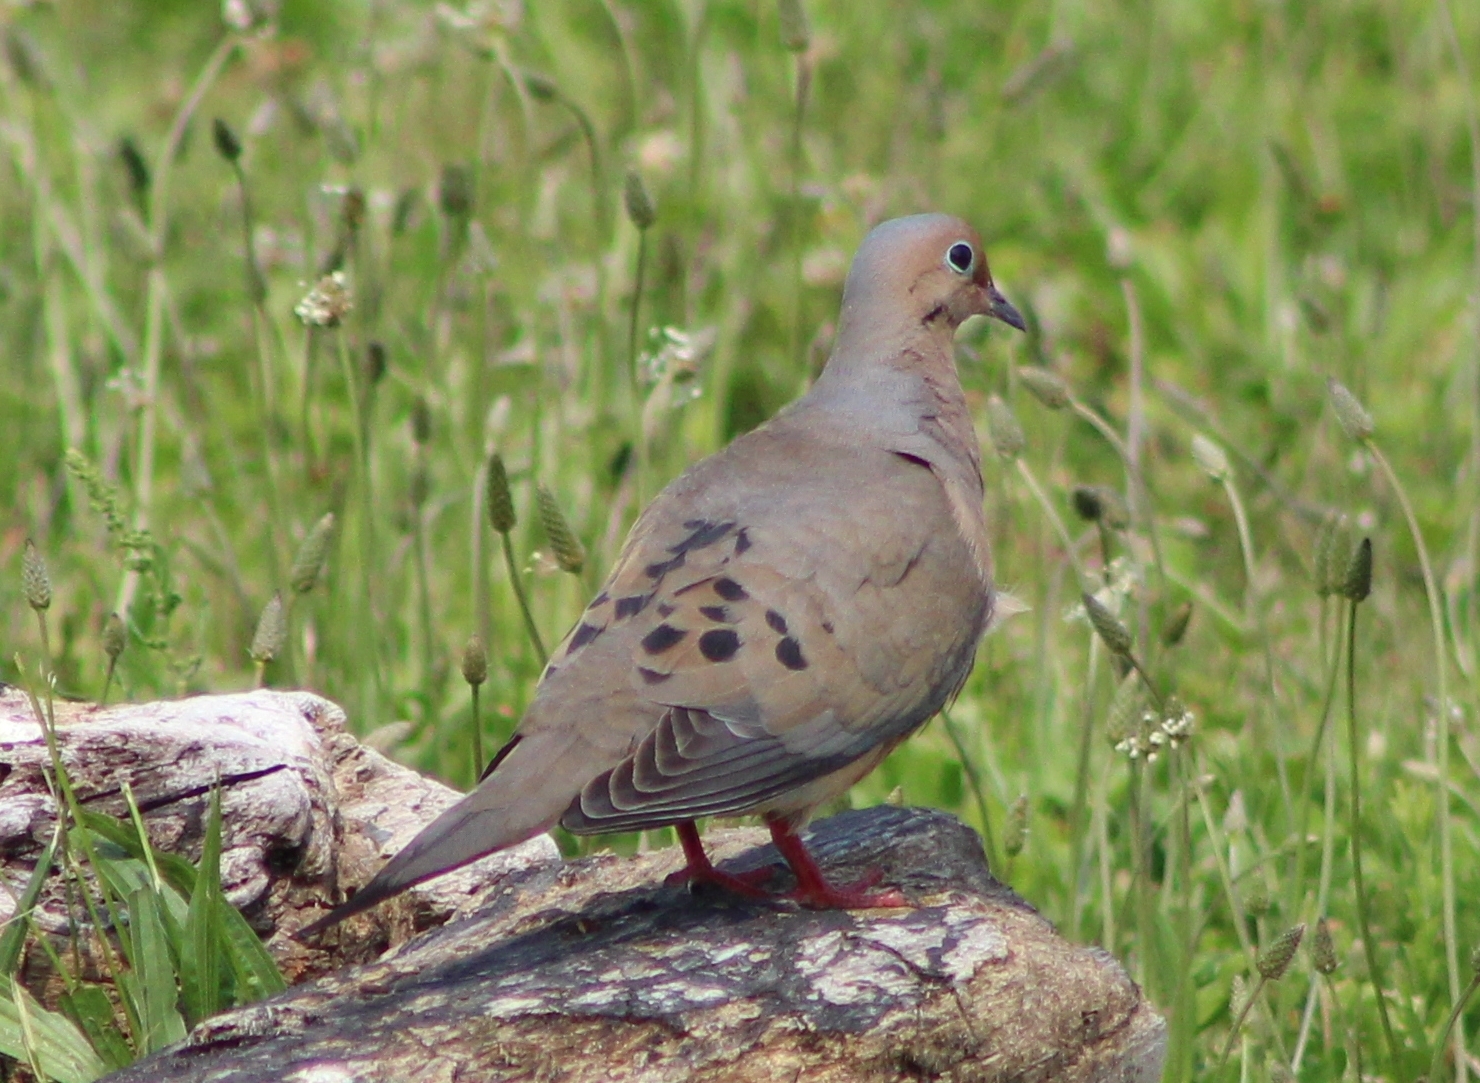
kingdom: Animalia
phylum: Chordata
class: Aves
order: Columbiformes
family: Columbidae
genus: Zenaida
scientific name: Zenaida macroura
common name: Mourning dove
